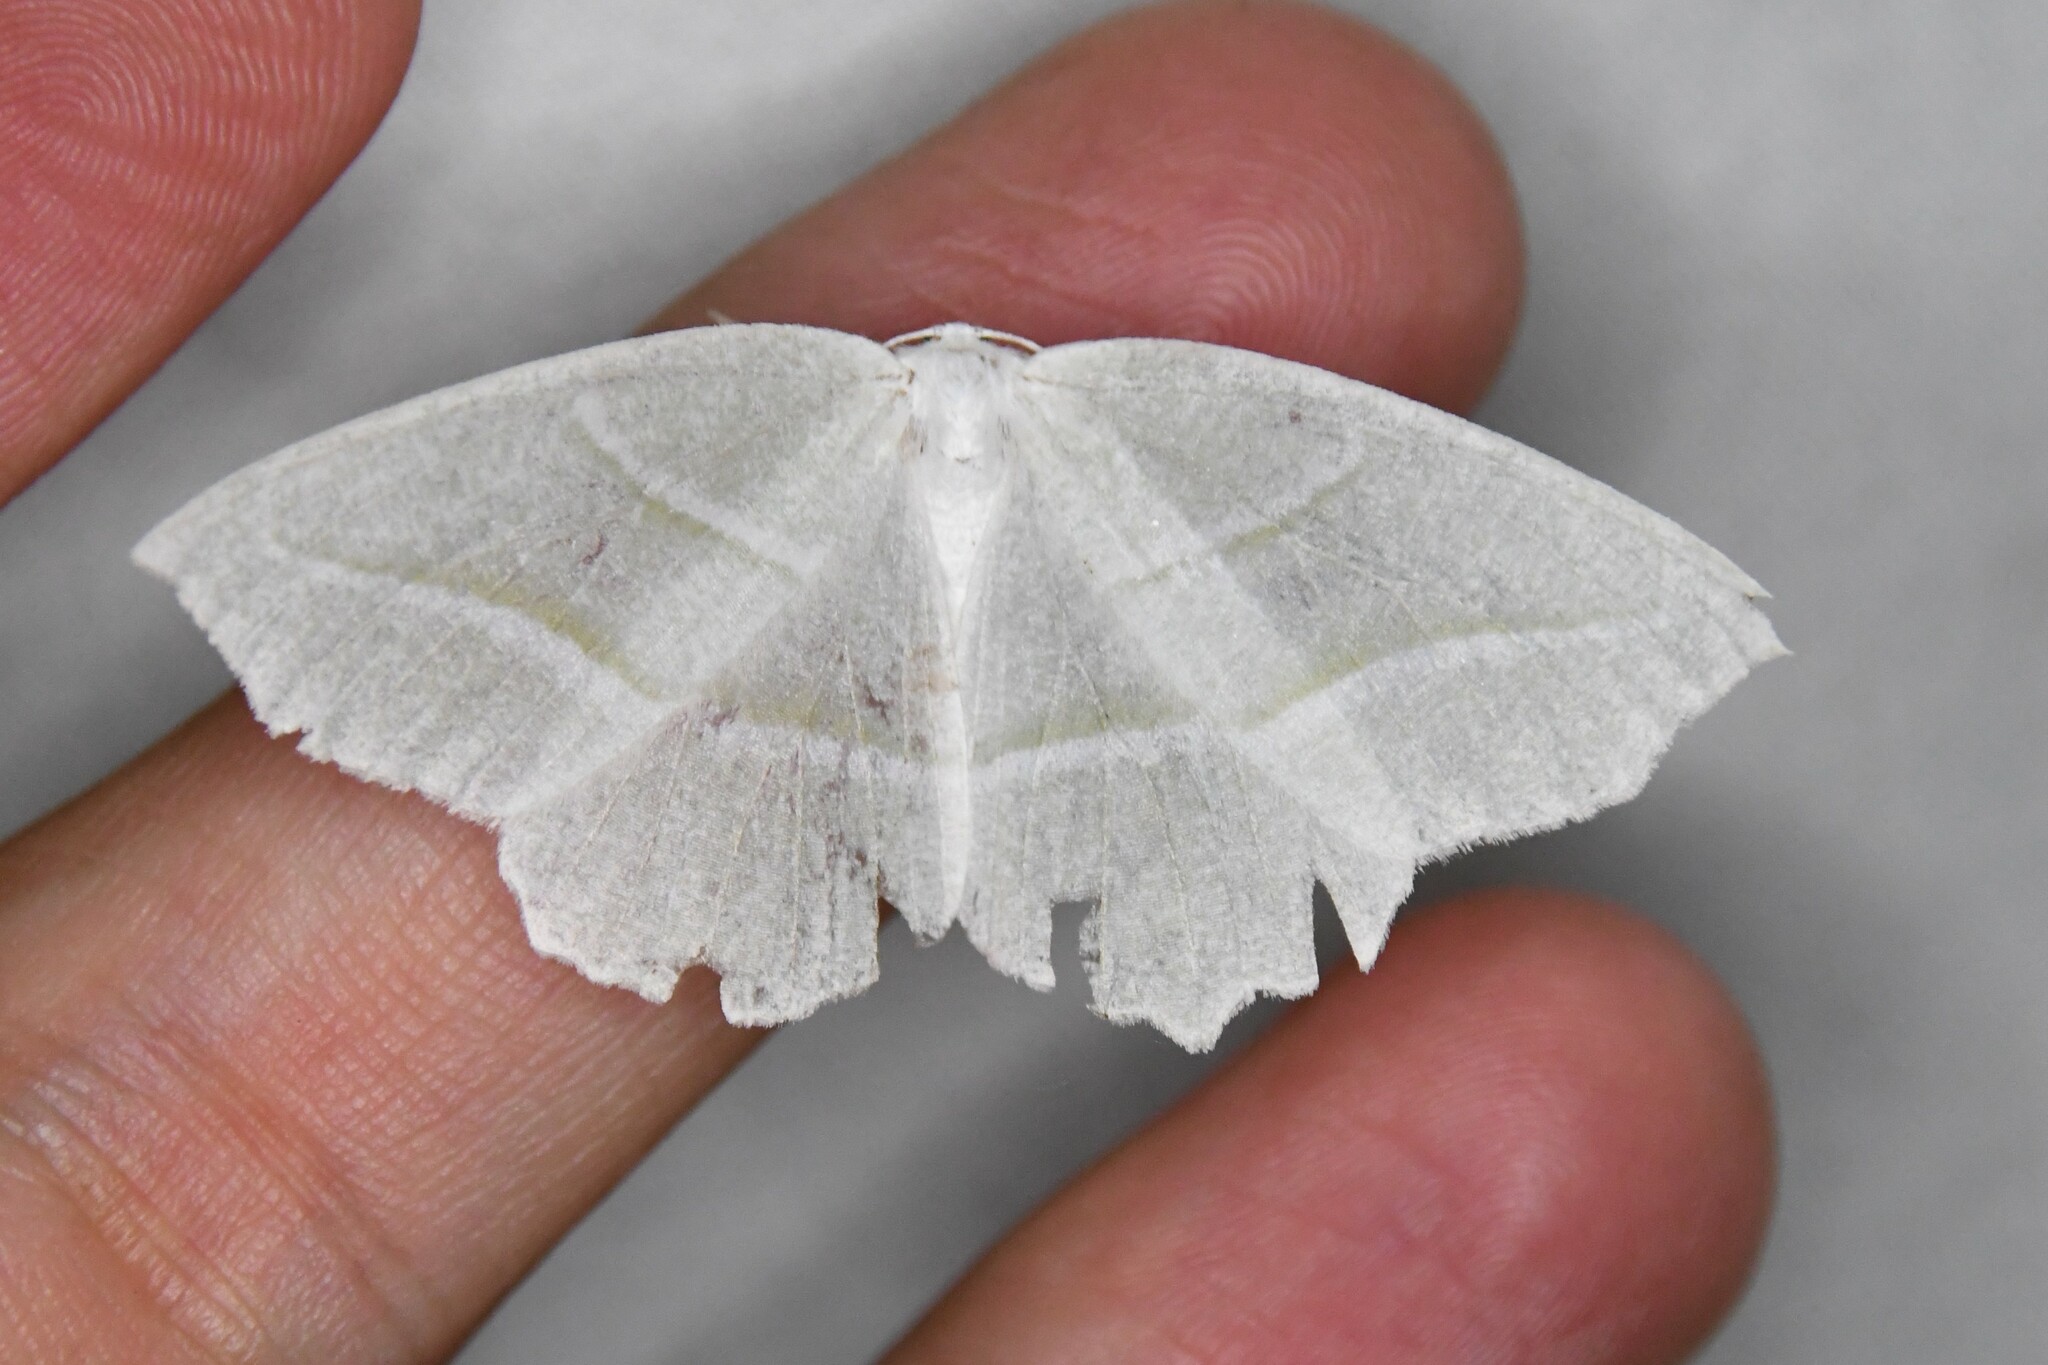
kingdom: Animalia
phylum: Arthropoda
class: Insecta
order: Lepidoptera
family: Geometridae
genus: Campaea
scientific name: Campaea perlata
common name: Fringed looper
